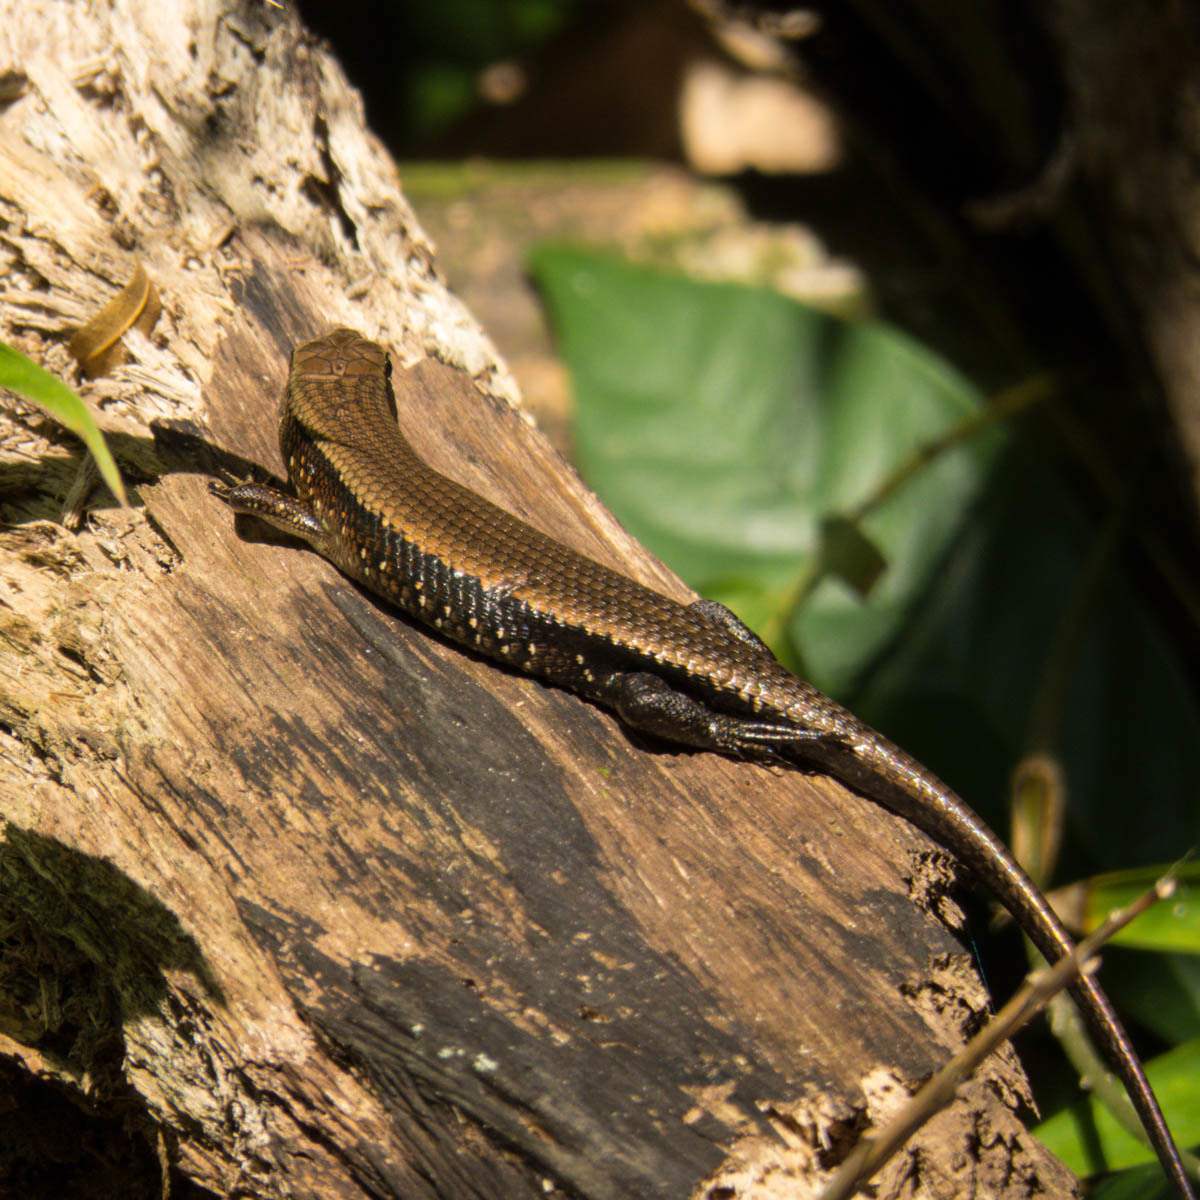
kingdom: Animalia
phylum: Chordata
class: Squamata
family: Scincidae
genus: Eutropis
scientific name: Eutropis multifasciata
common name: Common mabuya
